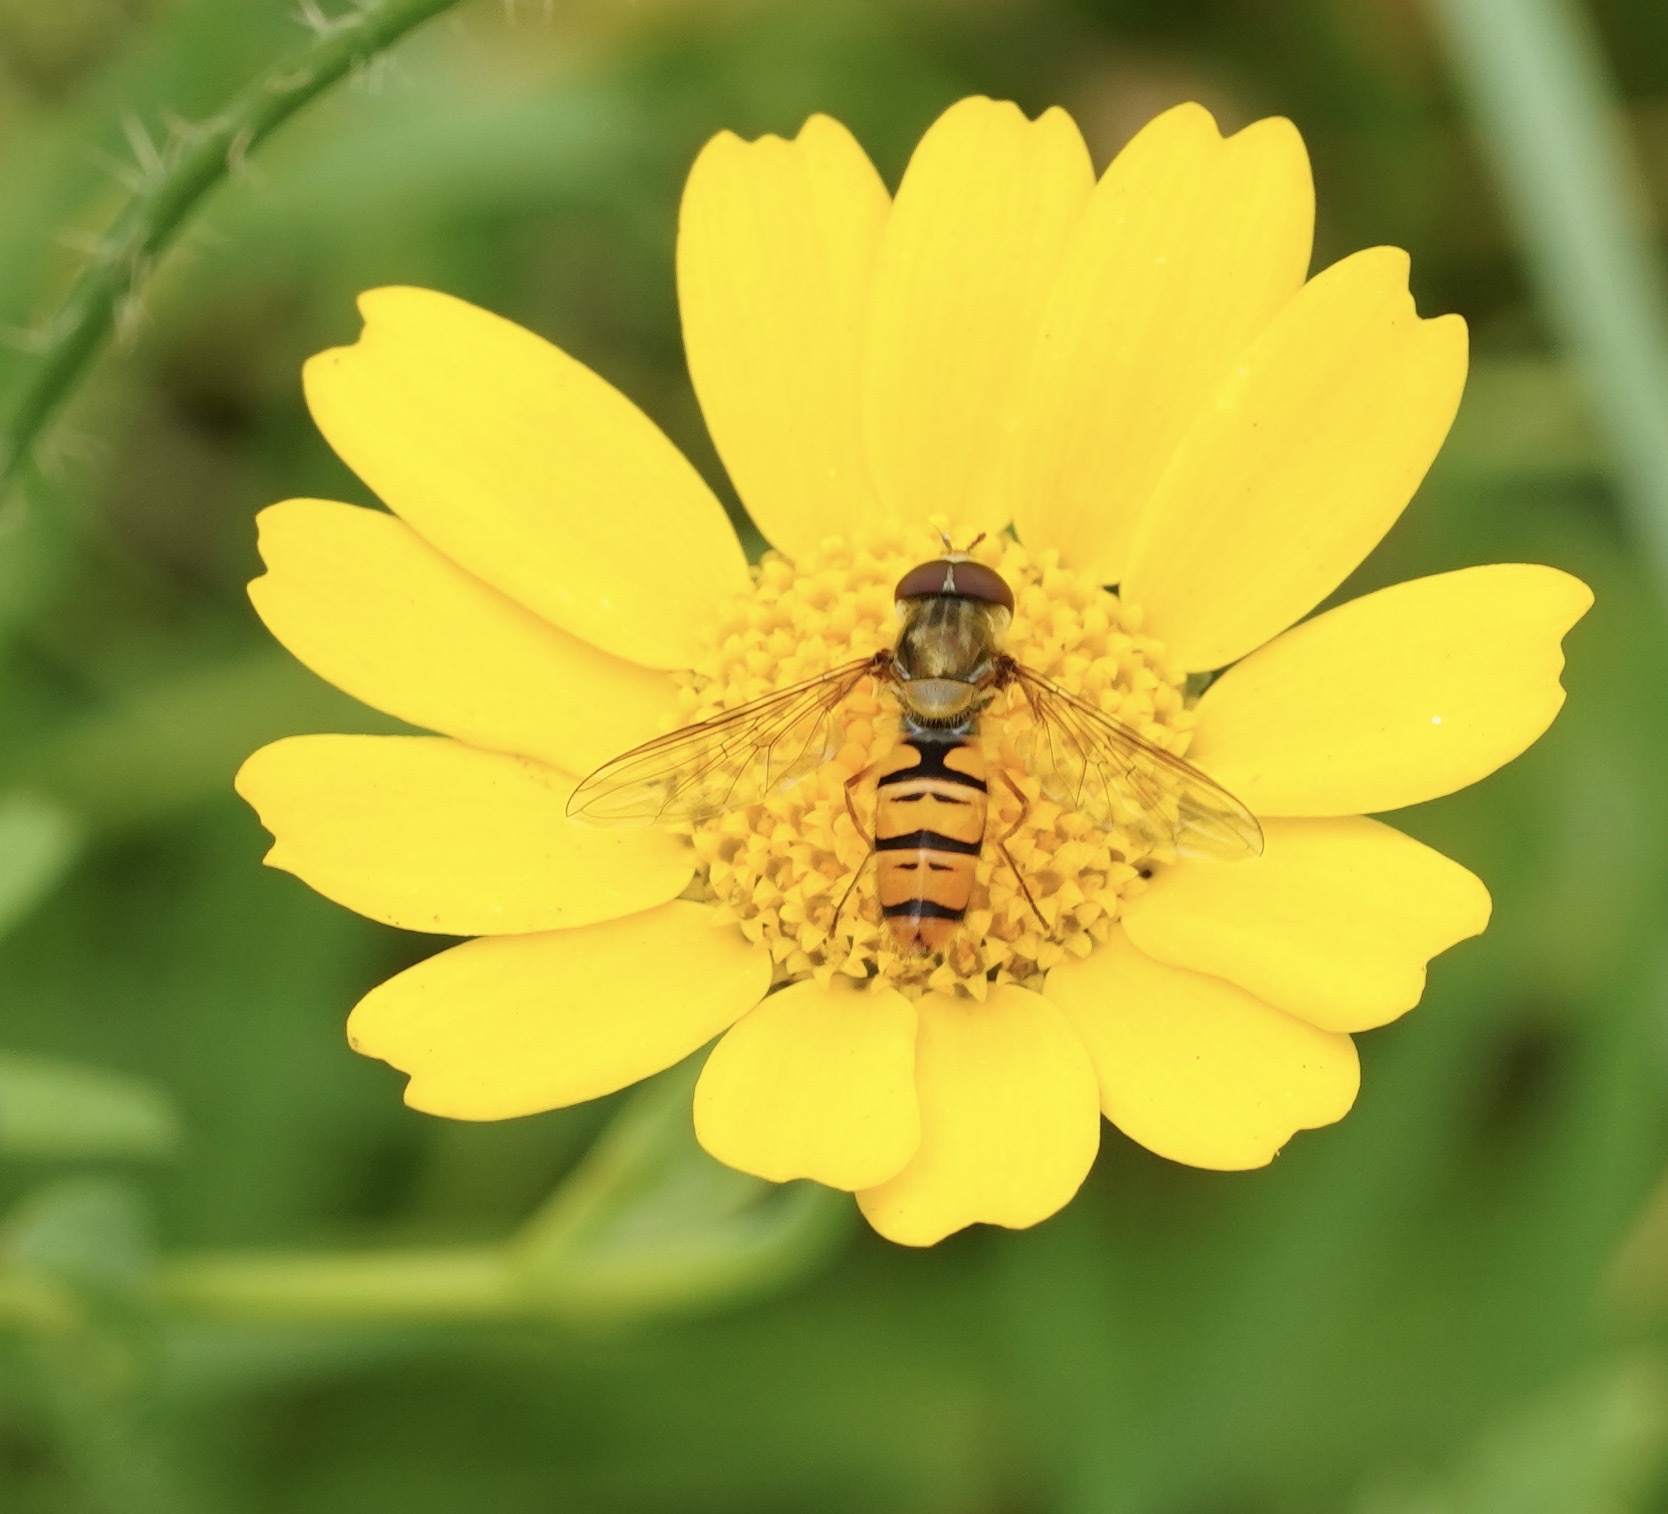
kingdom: Animalia
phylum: Arthropoda
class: Insecta
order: Diptera
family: Syrphidae
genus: Episyrphus
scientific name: Episyrphus balteatus
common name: Marmalade hoverfly
